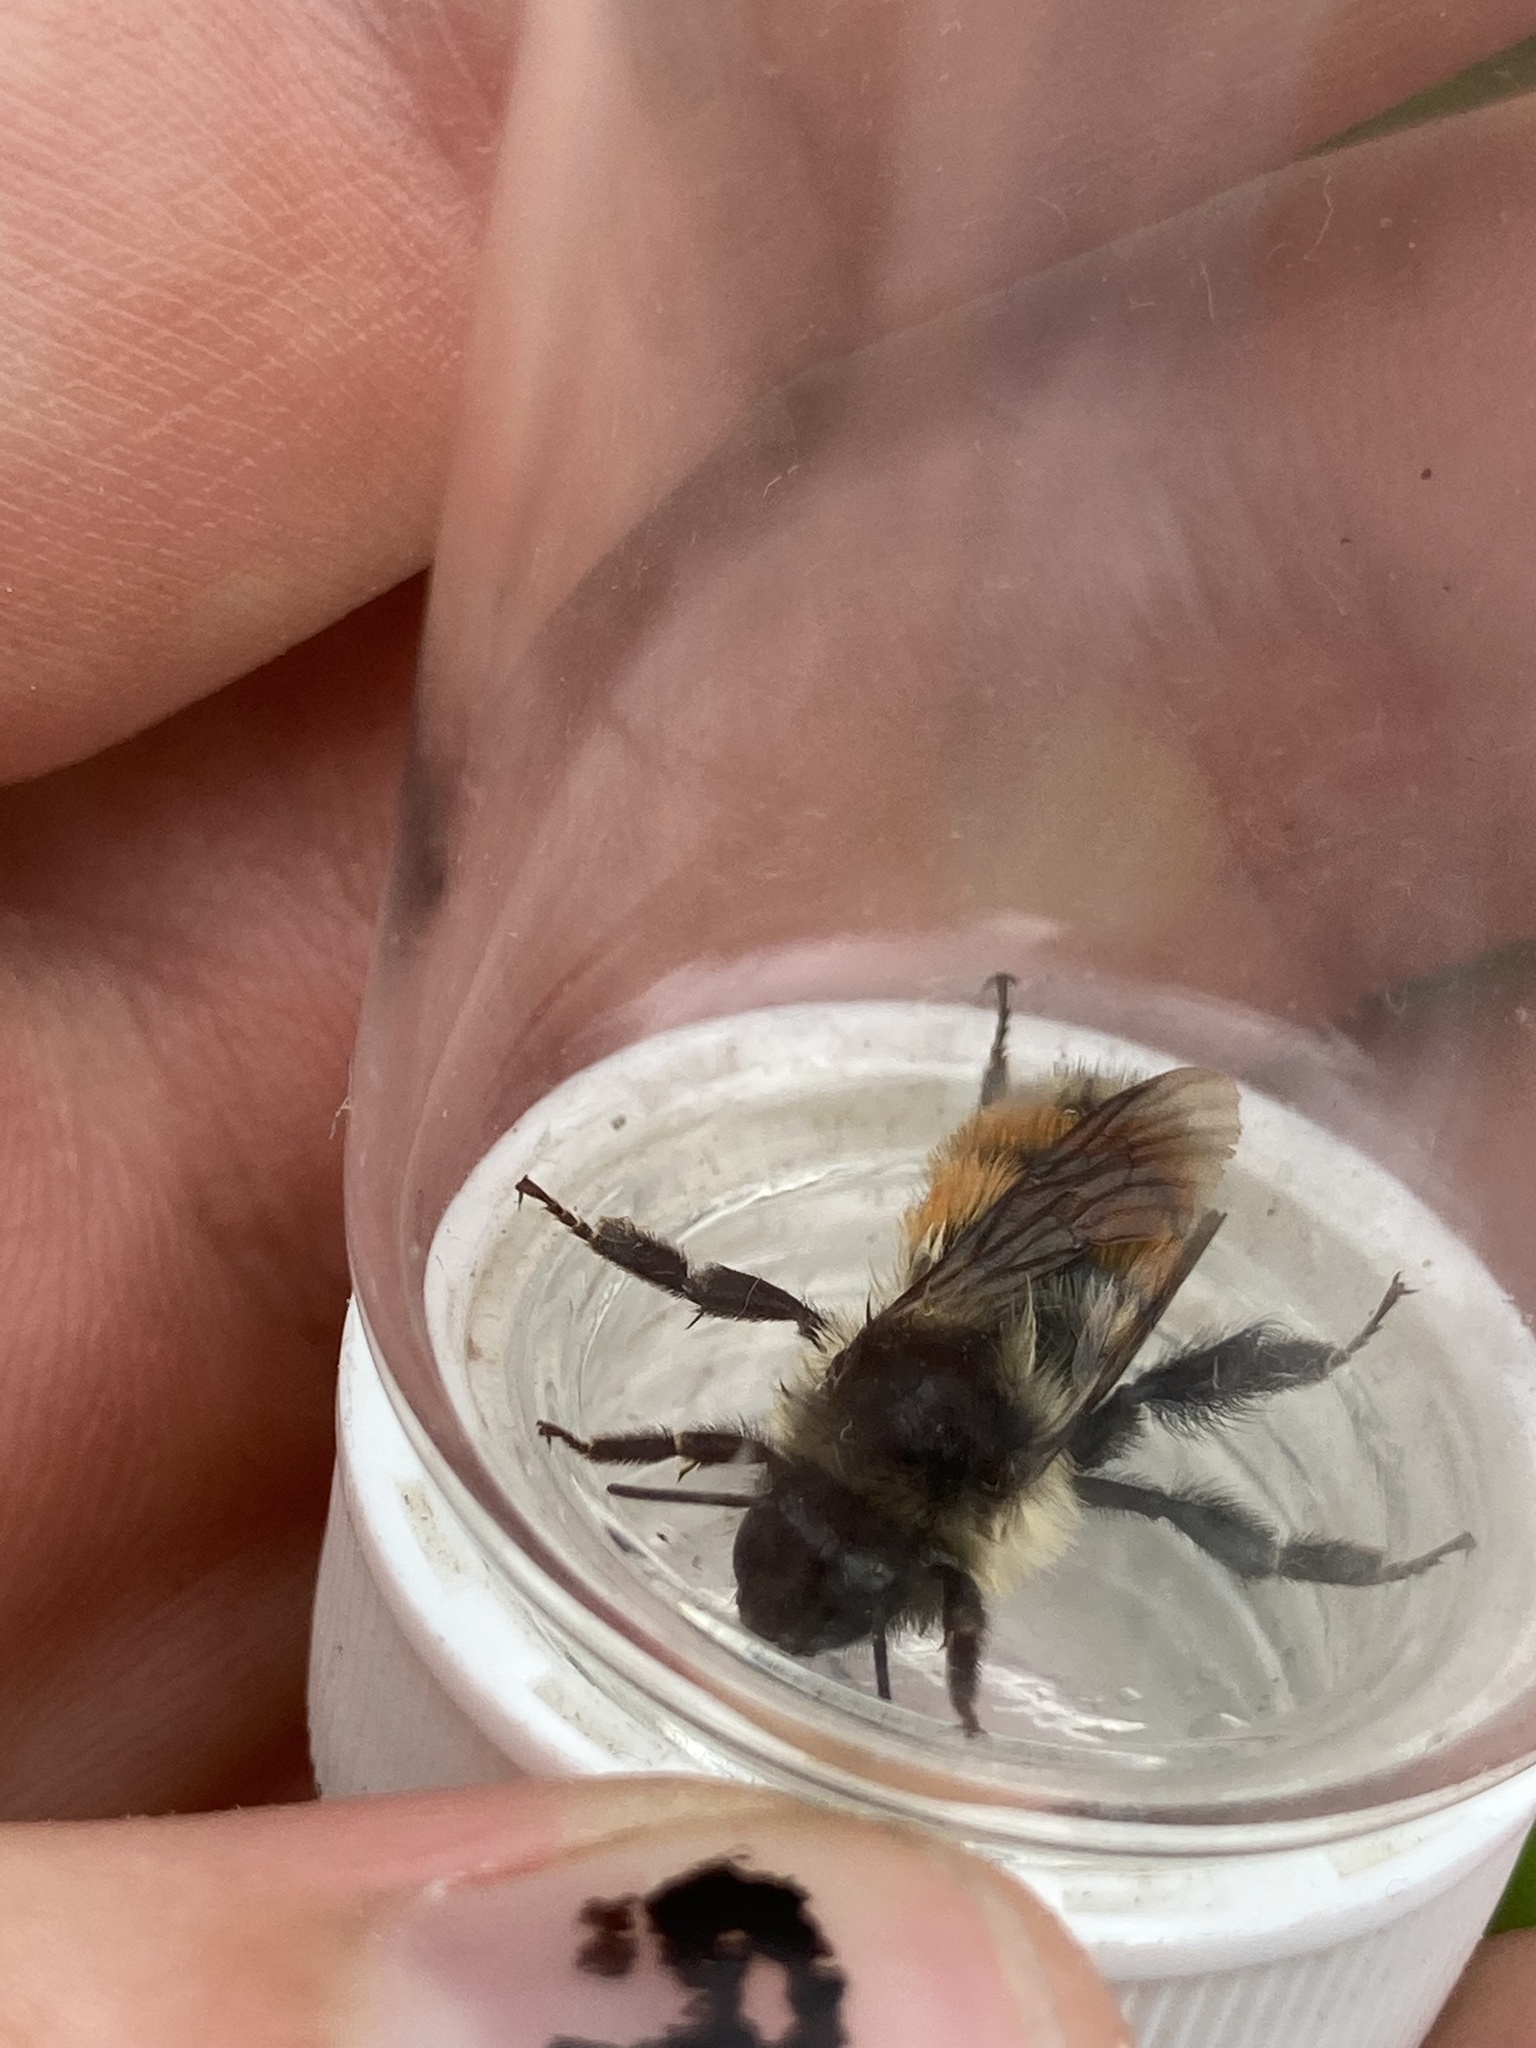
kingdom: Animalia
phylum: Arthropoda
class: Insecta
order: Hymenoptera
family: Apidae
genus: Bombus
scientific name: Bombus ternarius
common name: Tri-colored bumble bee
